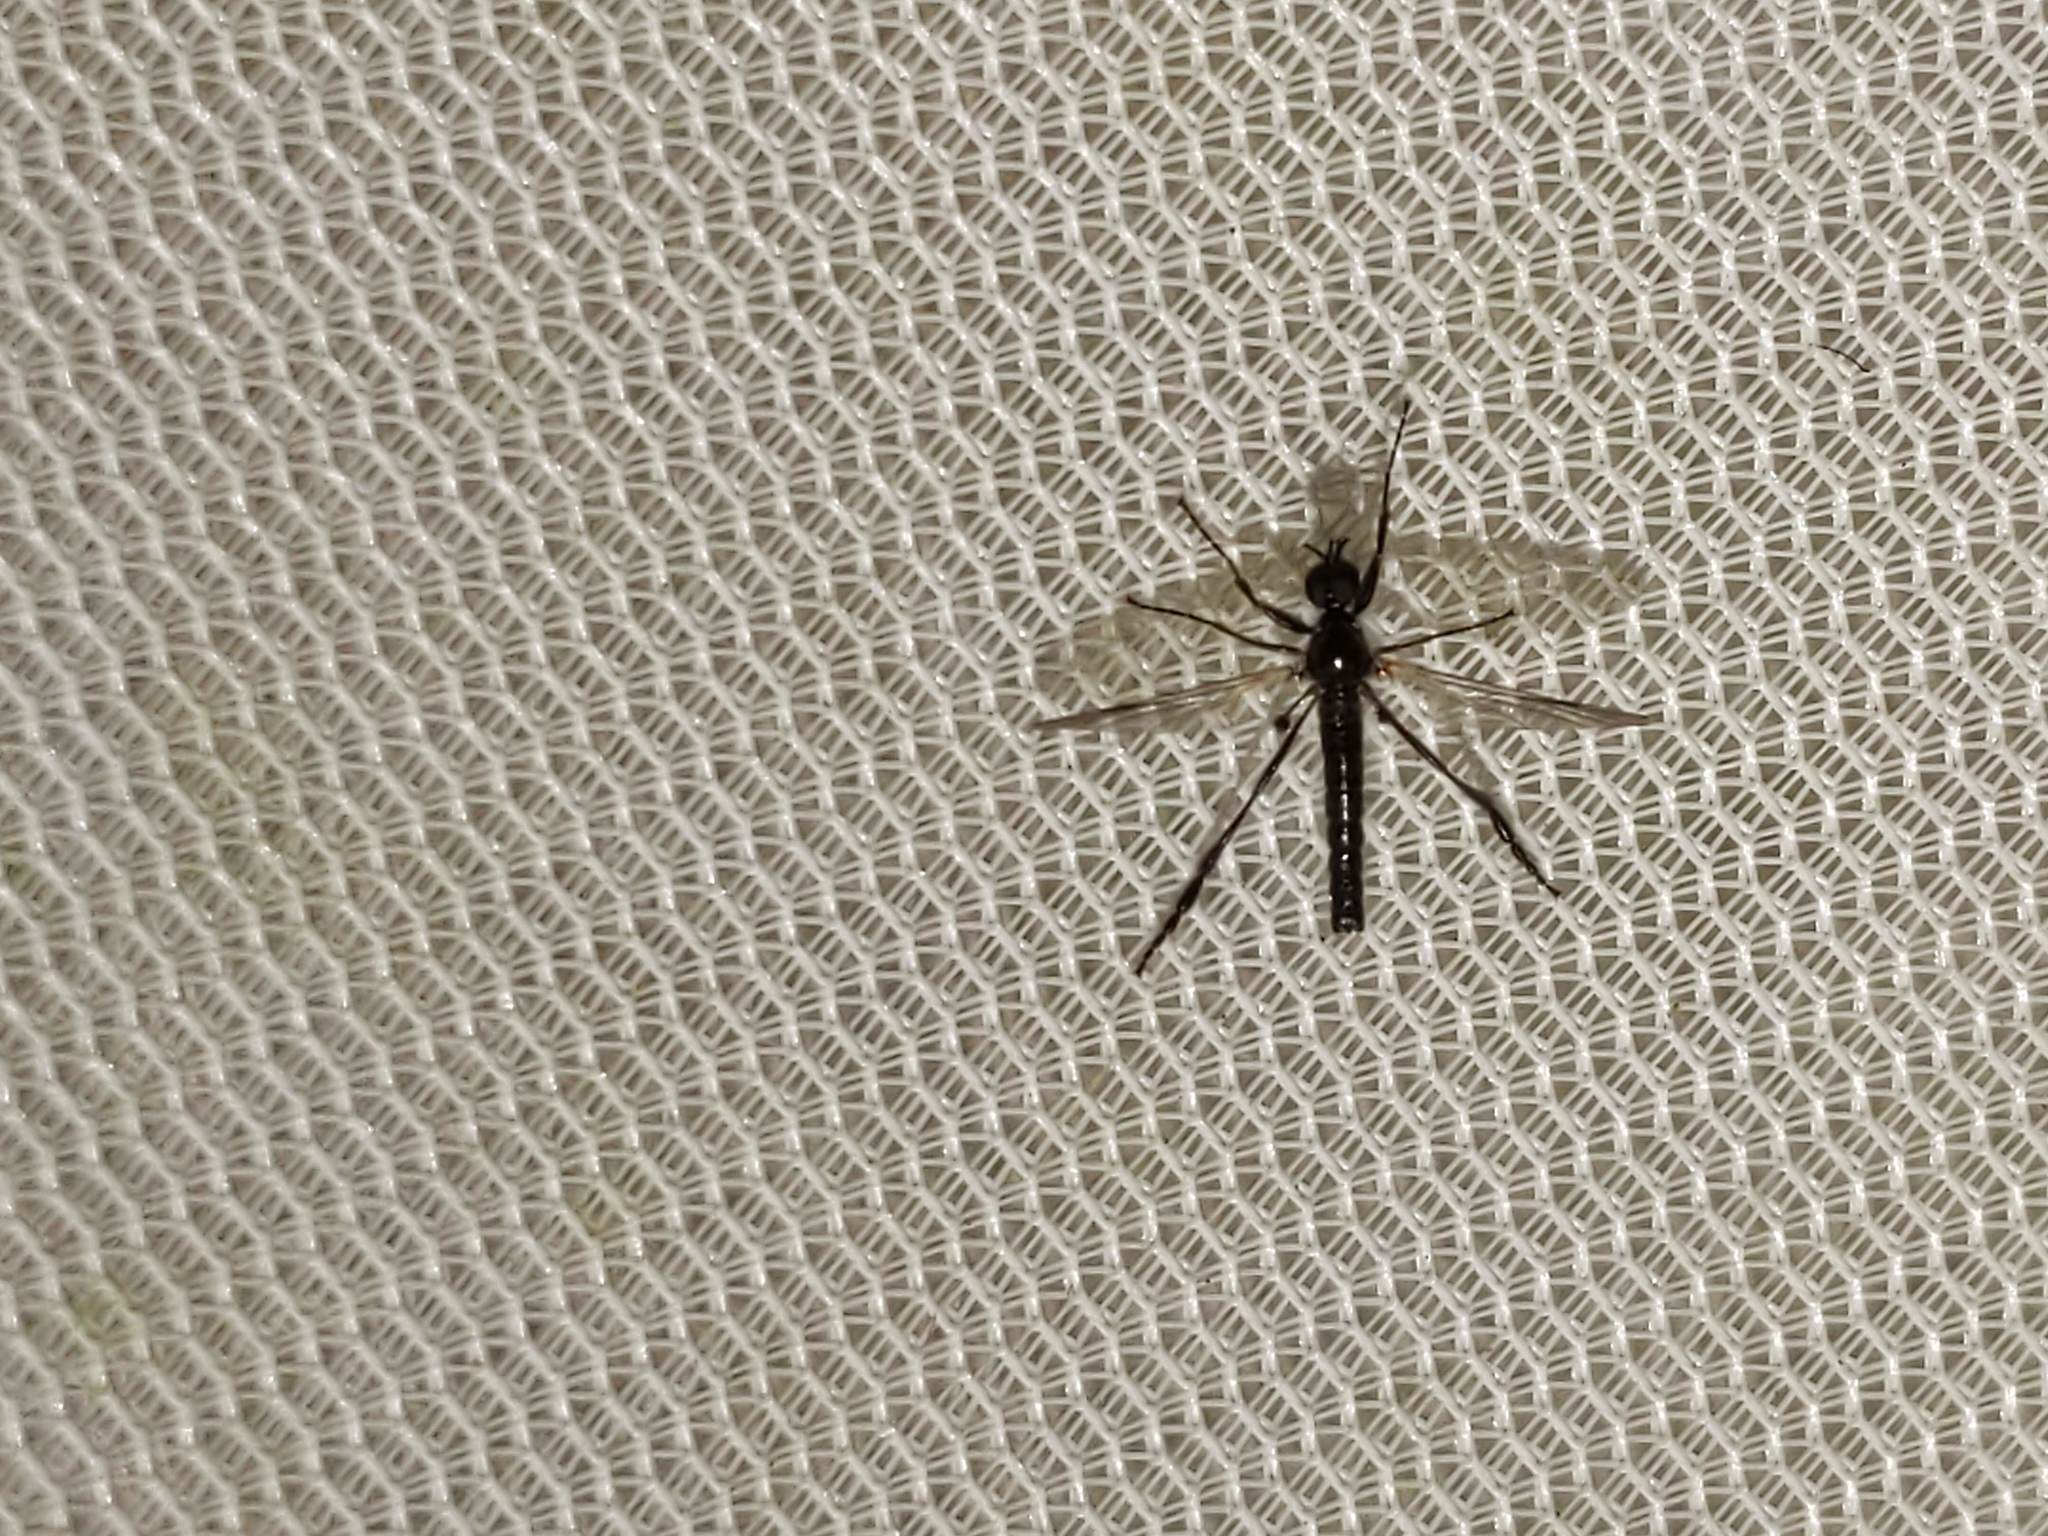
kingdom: Animalia
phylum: Arthropoda
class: Insecta
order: Diptera
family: Bibionidae
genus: Bibio
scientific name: Bibio
